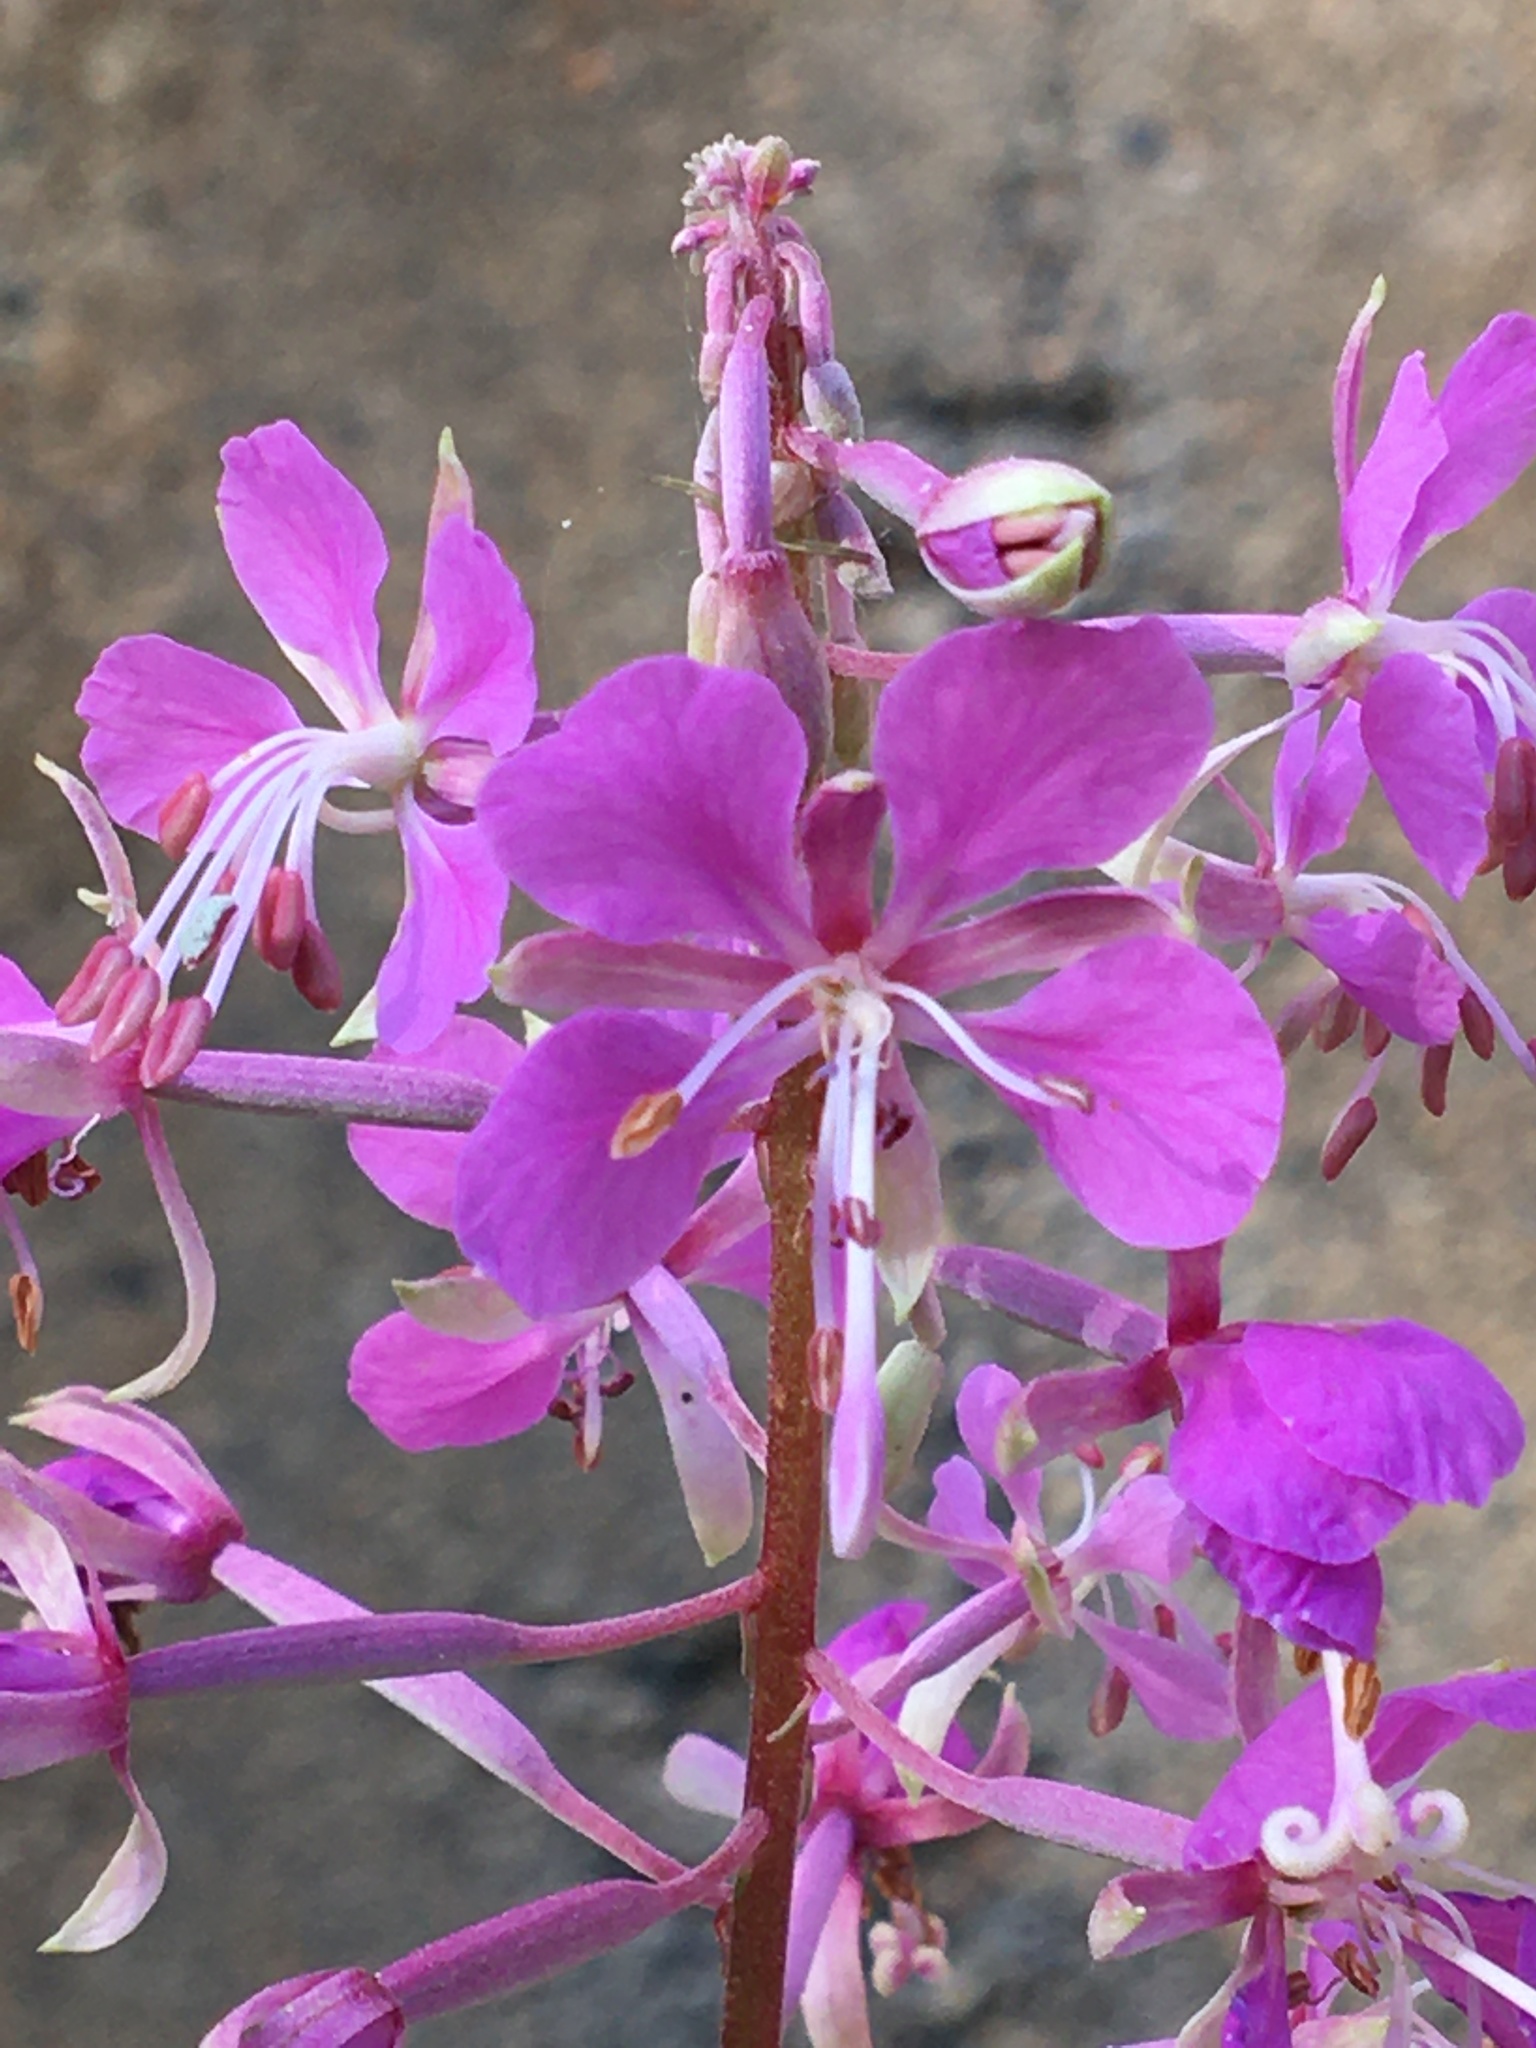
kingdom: Plantae
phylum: Tracheophyta
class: Magnoliopsida
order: Myrtales
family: Onagraceae
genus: Chamaenerion
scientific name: Chamaenerion angustifolium
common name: Fireweed
